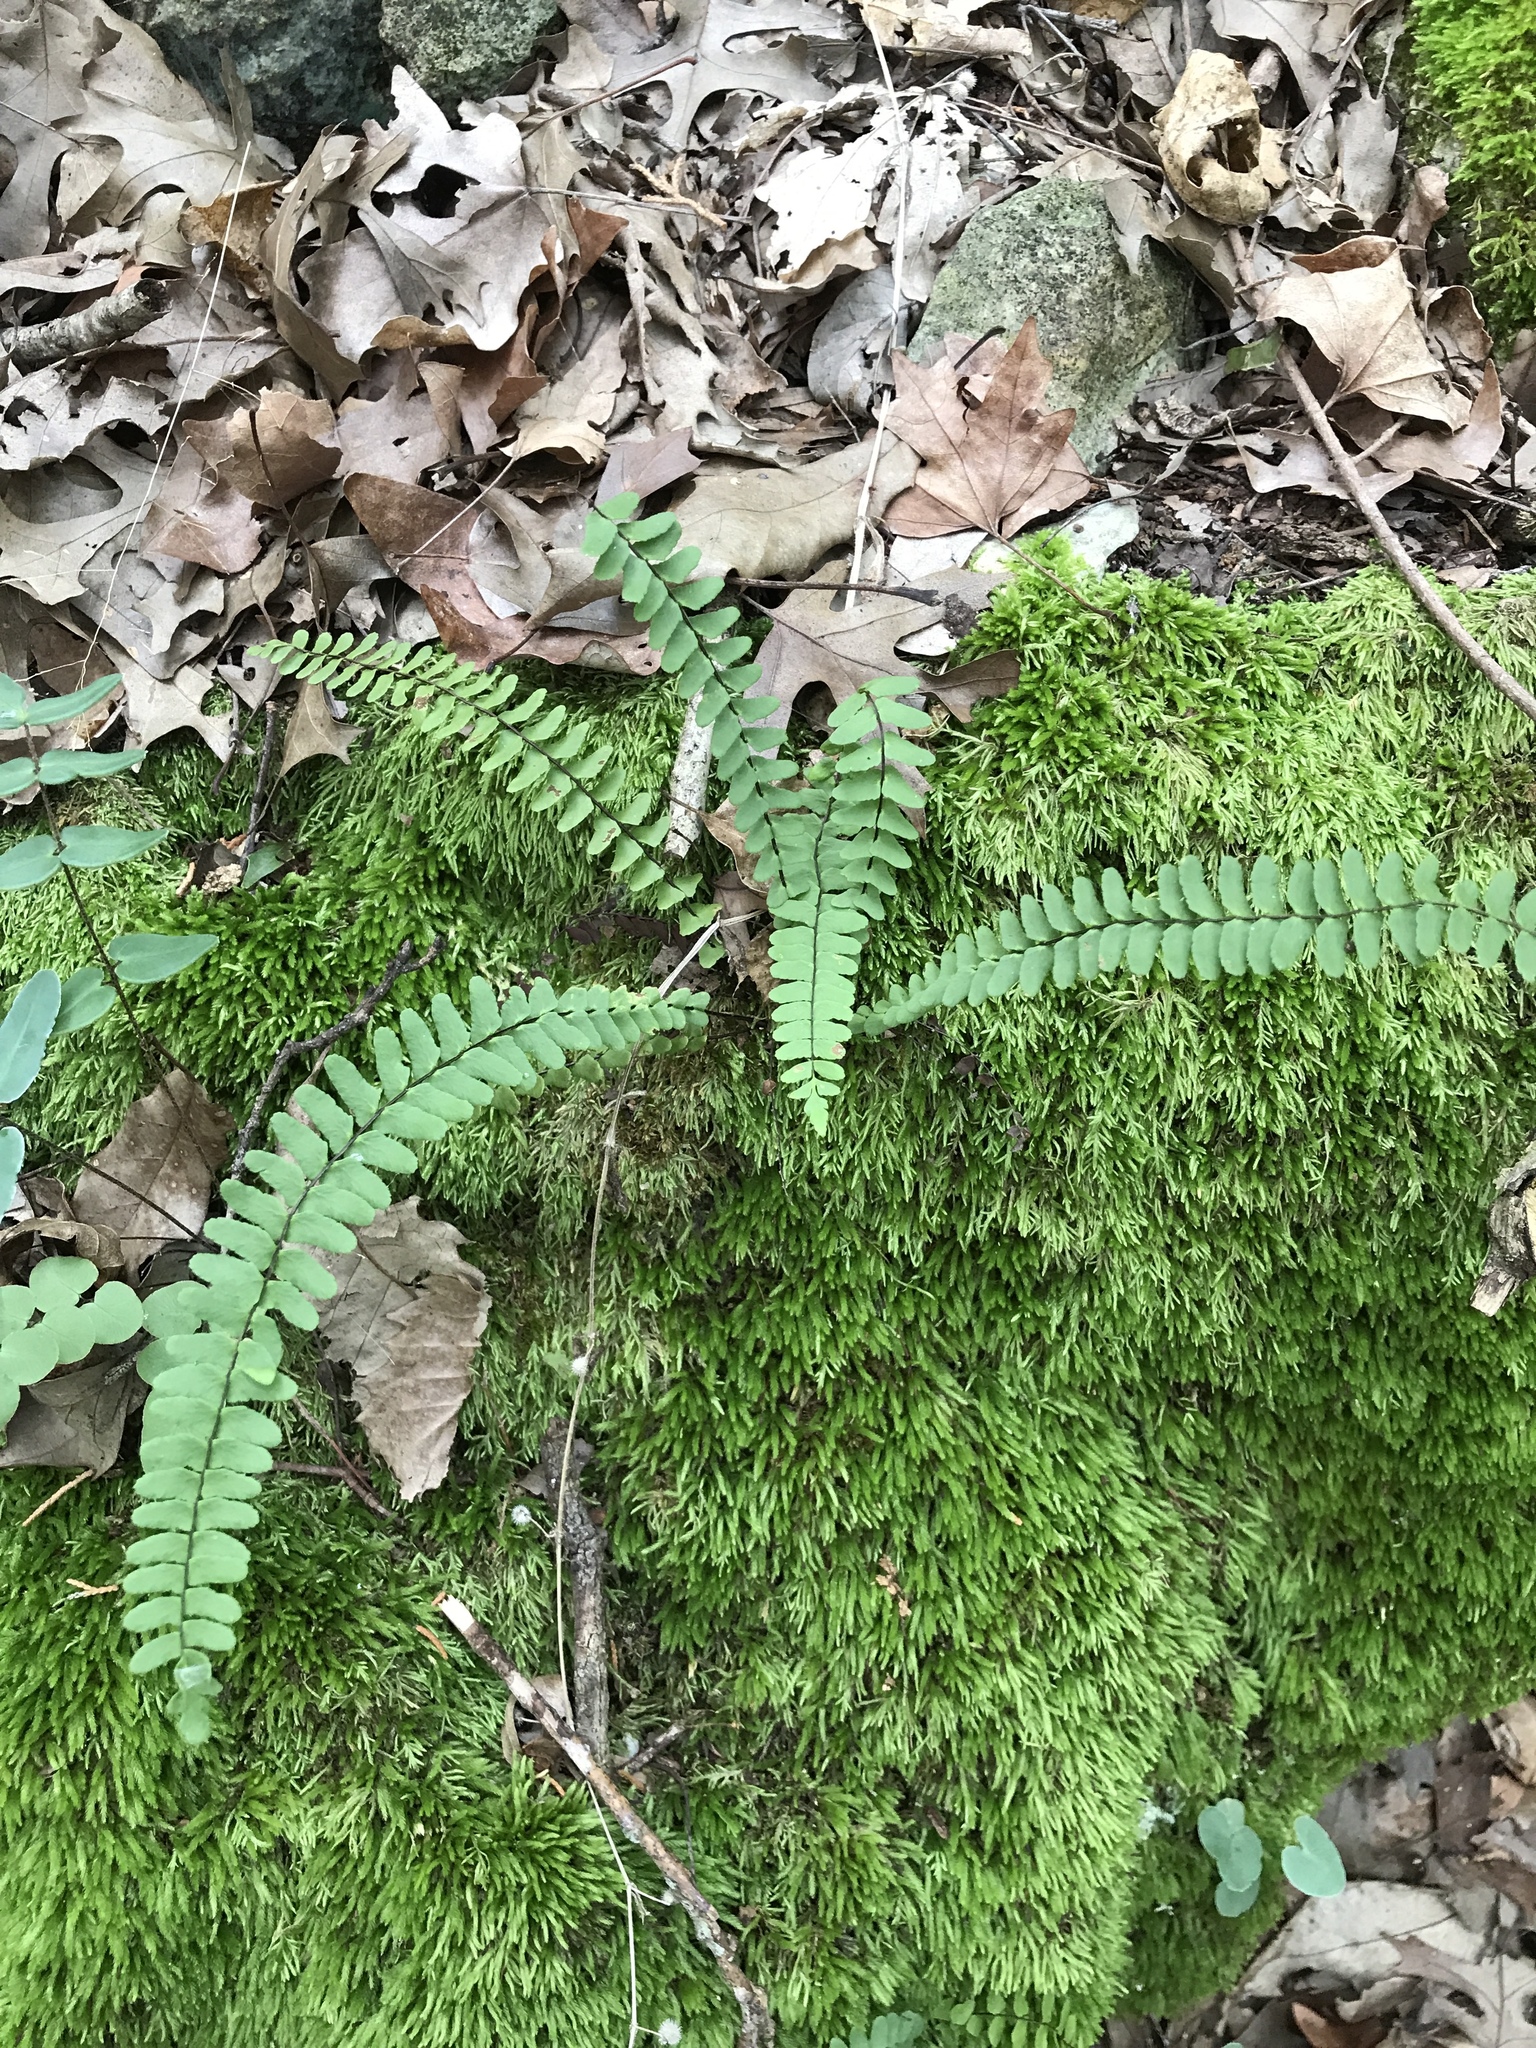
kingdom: Plantae
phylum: Tracheophyta
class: Polypodiopsida
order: Polypodiales
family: Aspleniaceae
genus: Asplenium
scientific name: Asplenium resiliens
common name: Blackstem spleenwort
